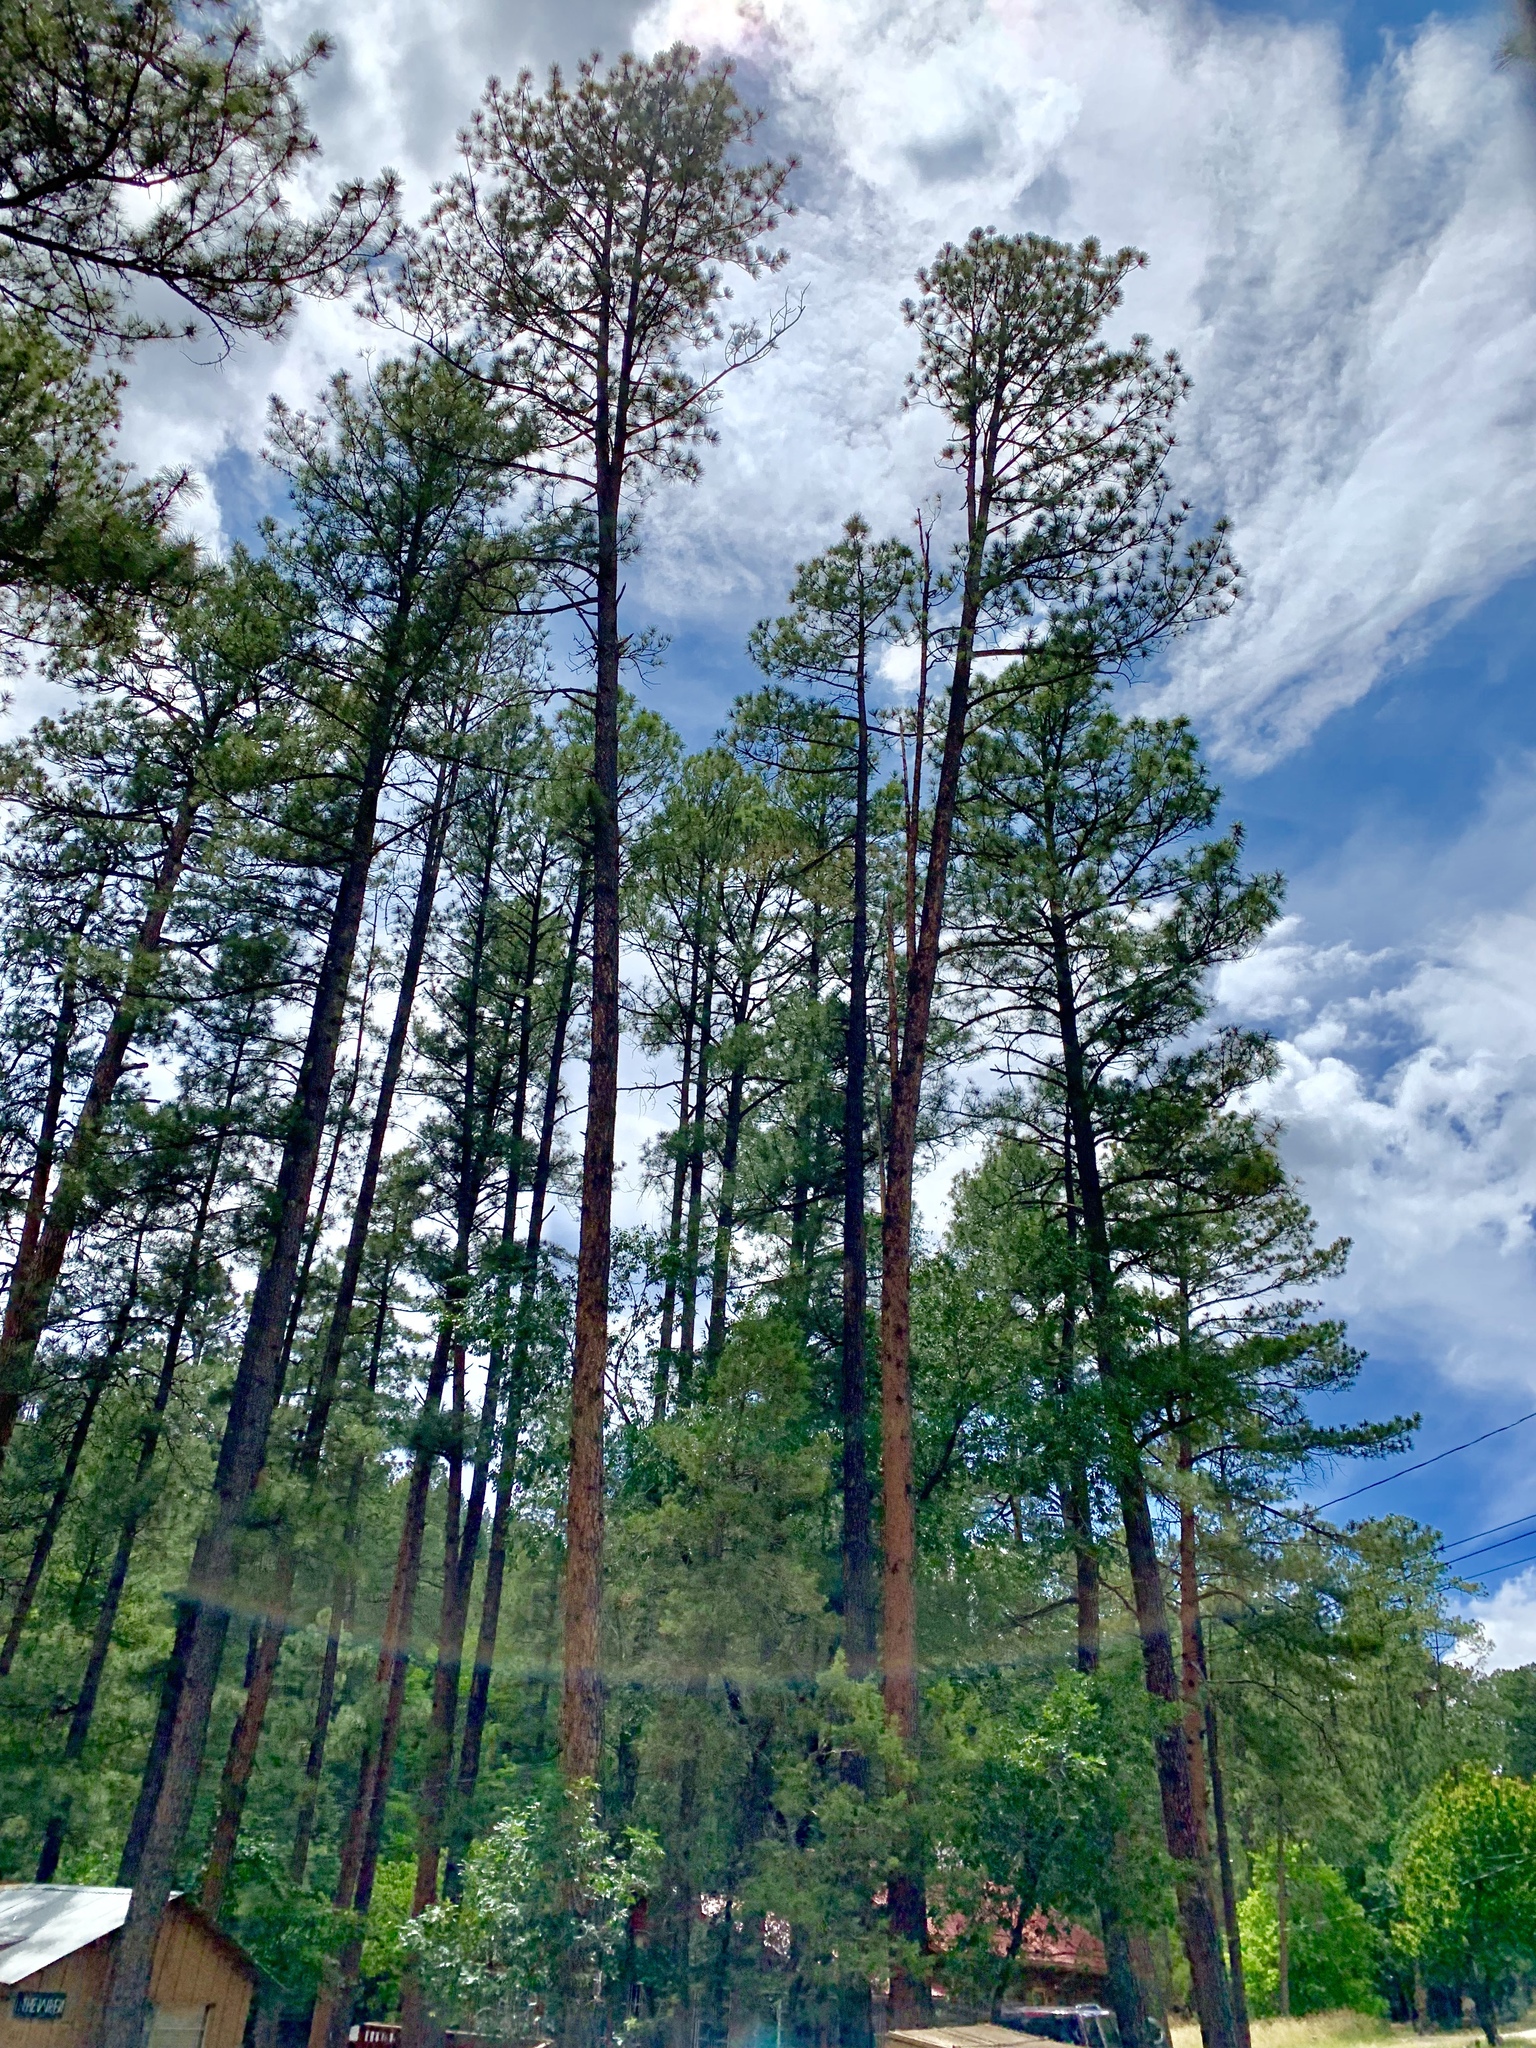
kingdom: Plantae
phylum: Tracheophyta
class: Pinopsida
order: Pinales
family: Pinaceae
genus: Pinus
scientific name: Pinus ponderosa
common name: Western yellow-pine
